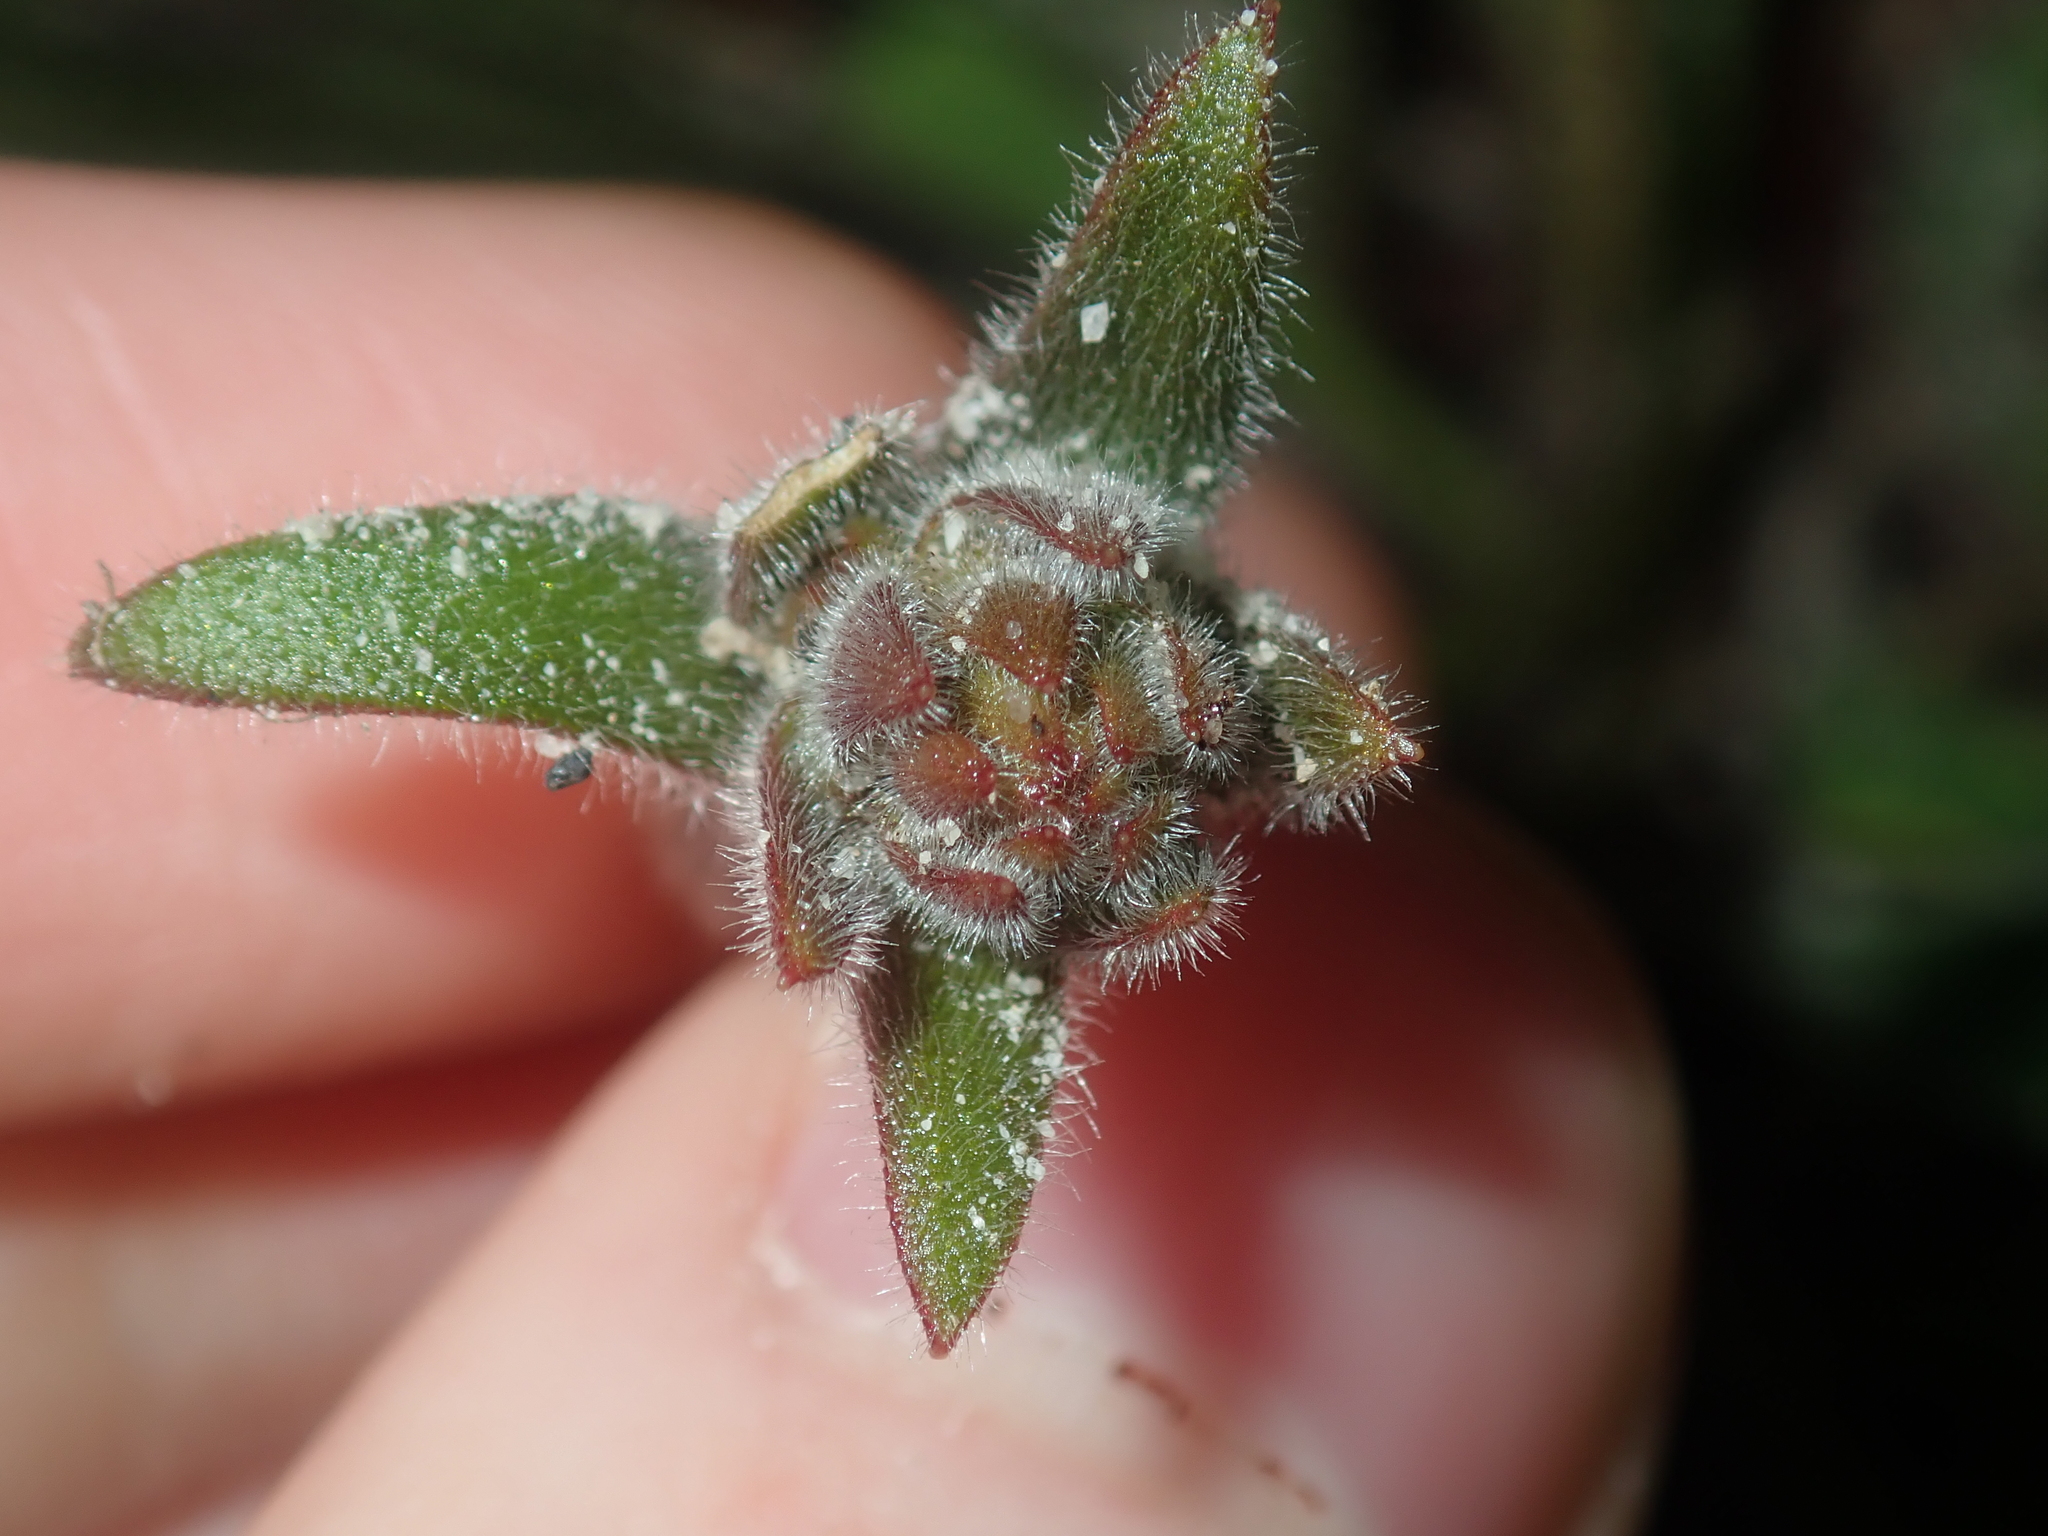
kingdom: Plantae
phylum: Tracheophyta
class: Magnoliopsida
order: Asterales
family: Stylidiaceae
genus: Stylidium
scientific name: Stylidium pycnostachyum
